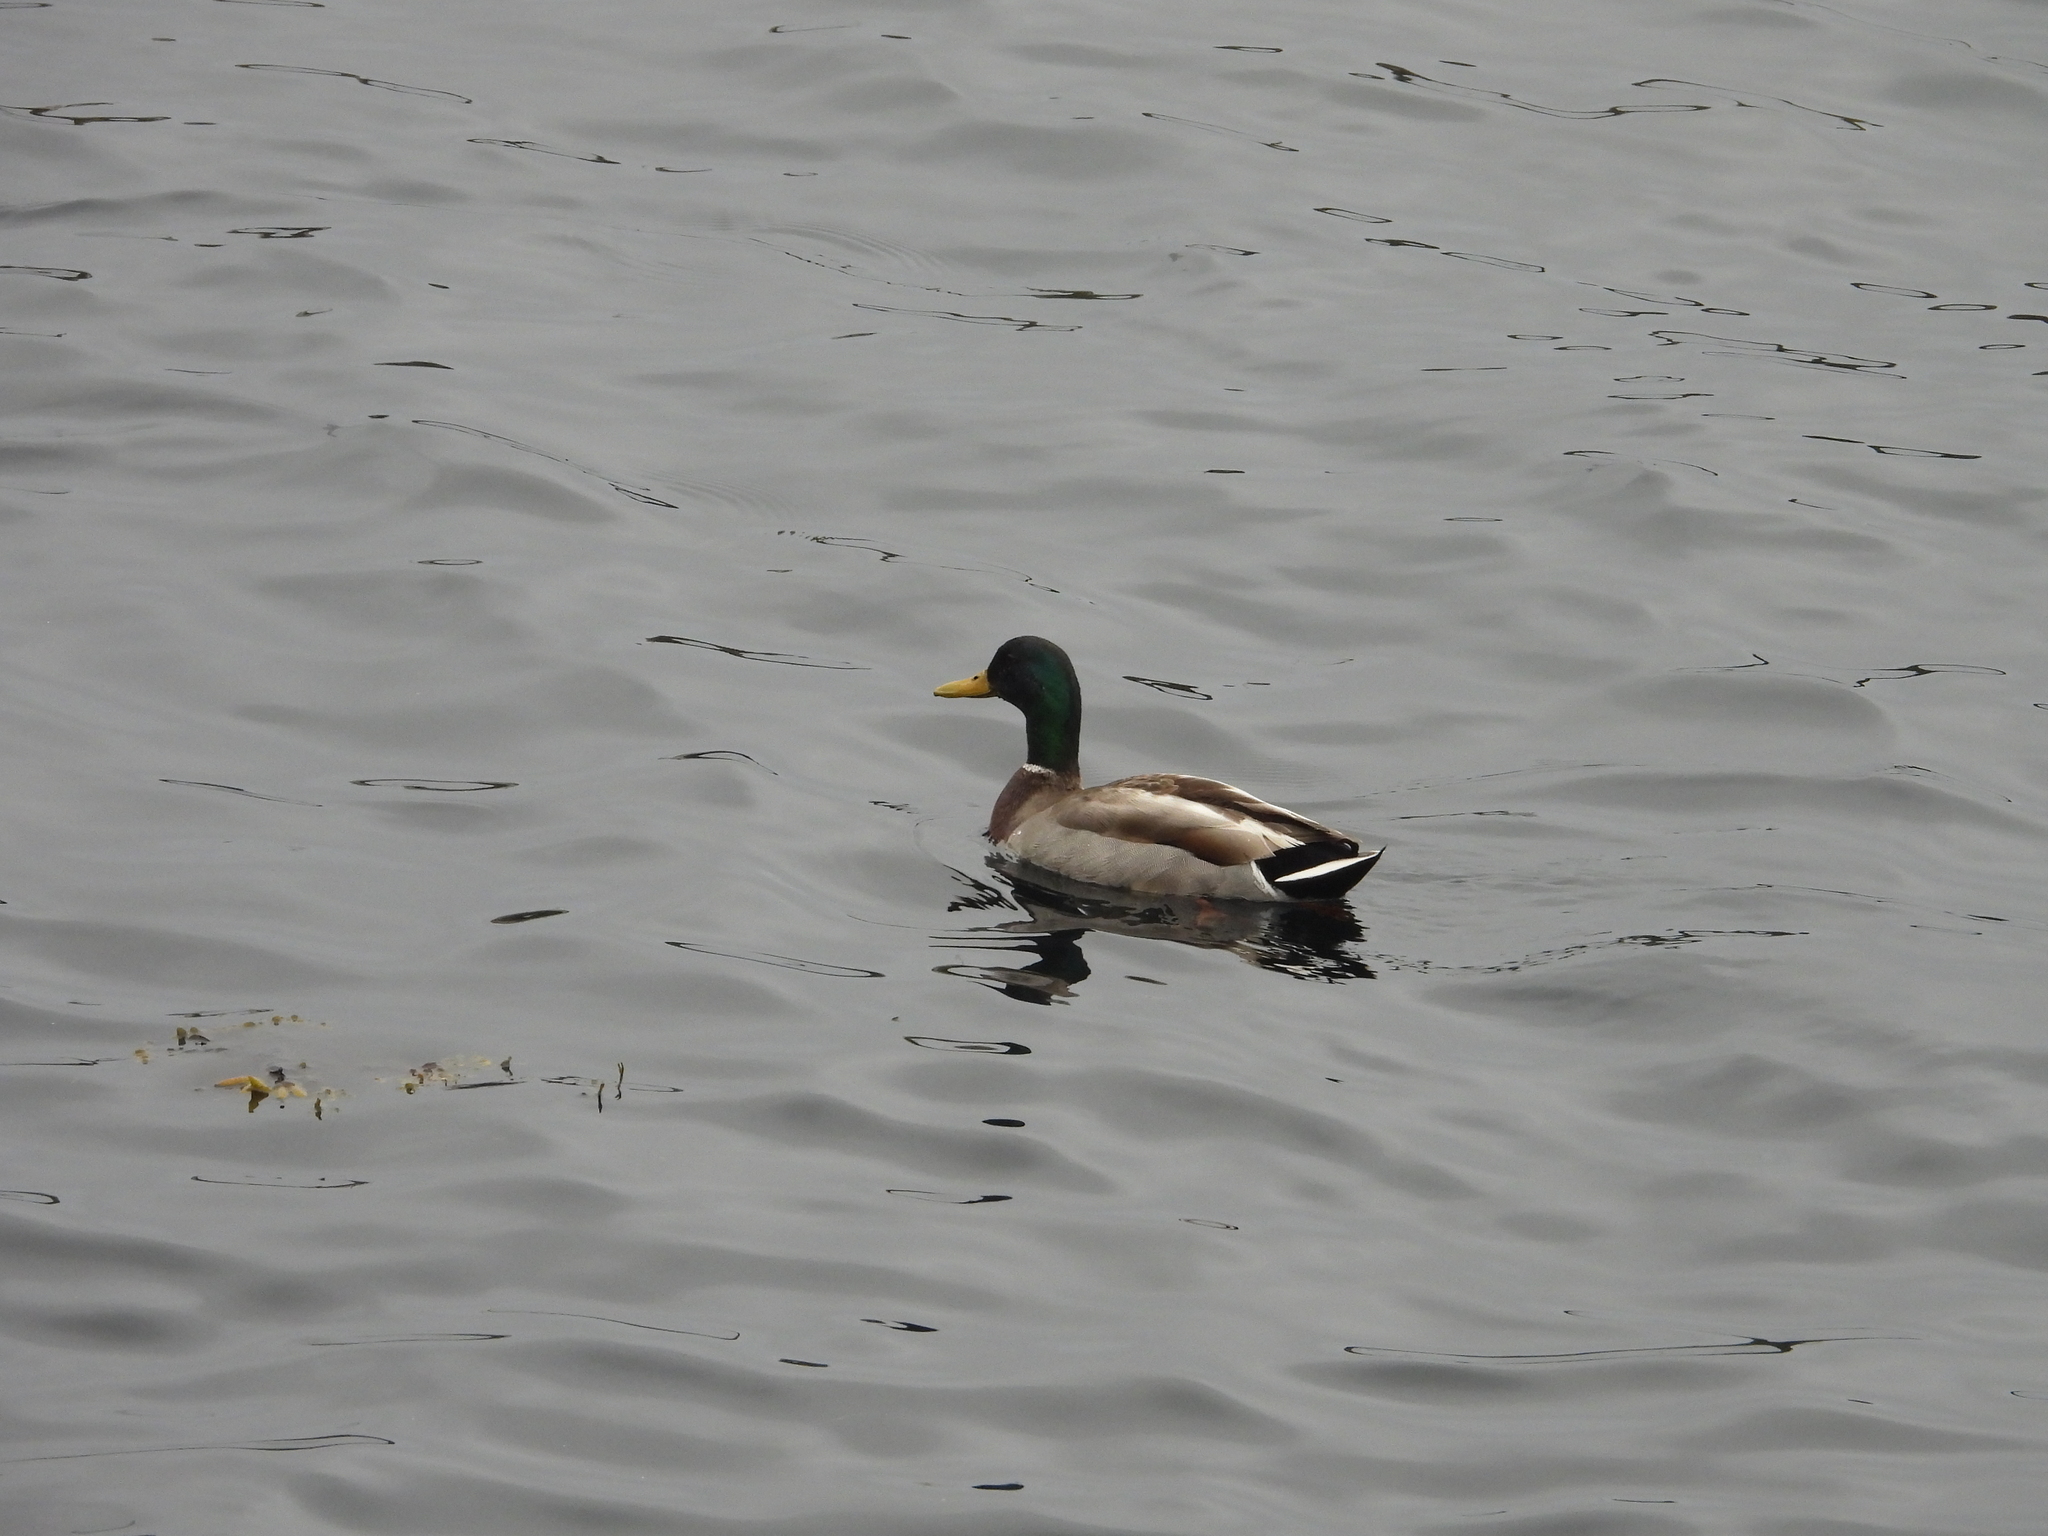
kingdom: Animalia
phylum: Chordata
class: Aves
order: Anseriformes
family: Anatidae
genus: Anas
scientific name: Anas platyrhynchos
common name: Mallard
